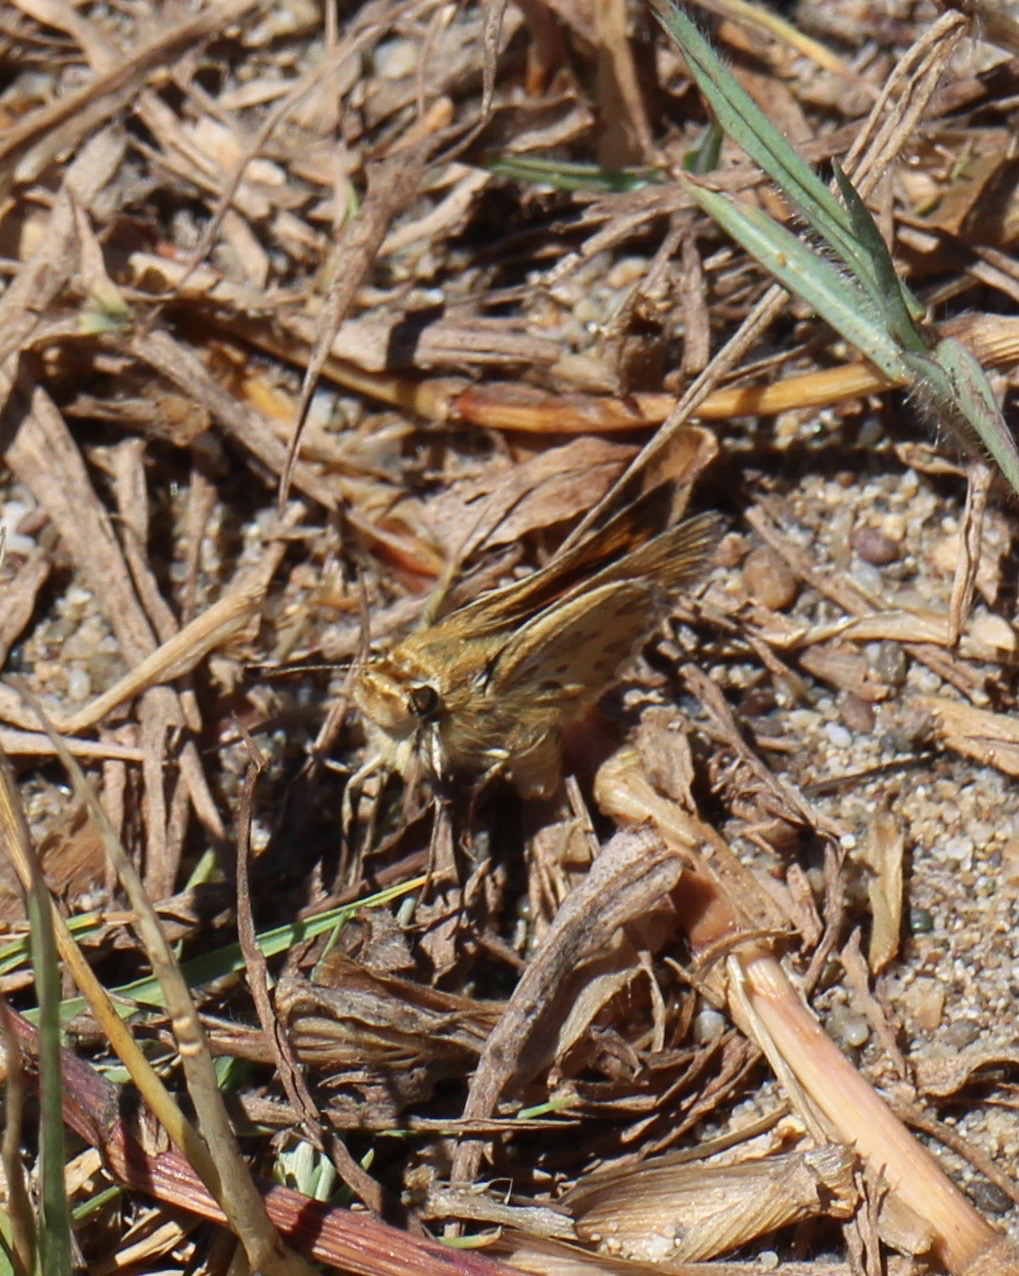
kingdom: Animalia
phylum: Arthropoda
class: Insecta
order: Lepidoptera
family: Hesperiidae
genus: Polites
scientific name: Polites sabuleti
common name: Sandhill skipper
